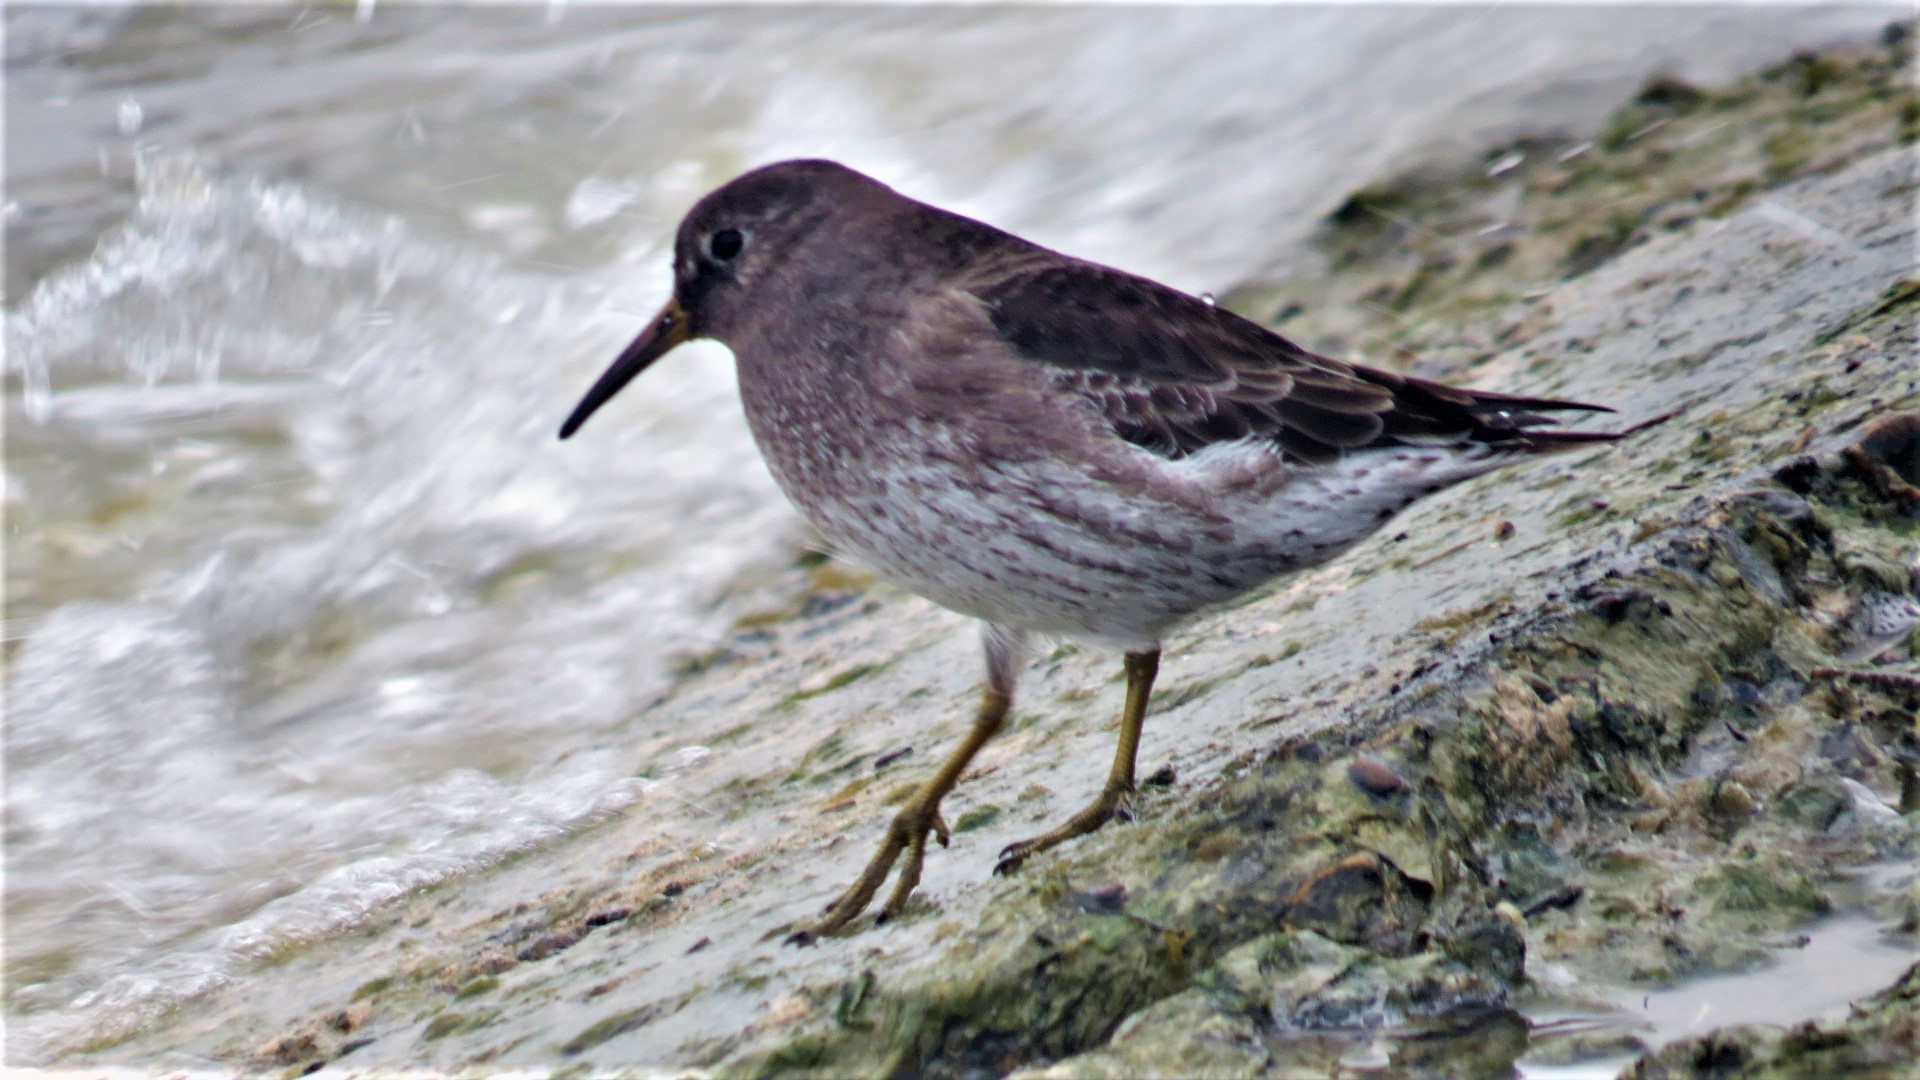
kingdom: Animalia
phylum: Chordata
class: Aves
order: Charadriiformes
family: Scolopacidae
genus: Calidris
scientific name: Calidris maritima
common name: Purple sandpiper
